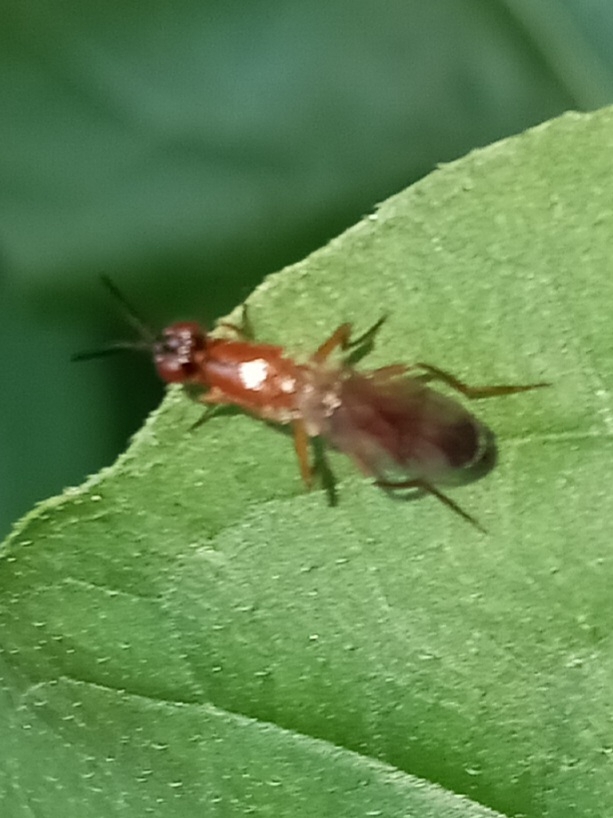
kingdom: Animalia
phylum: Arthropoda
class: Insecta
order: Diptera
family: Psilidae
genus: Loxocera
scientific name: Loxocera cylindrica
